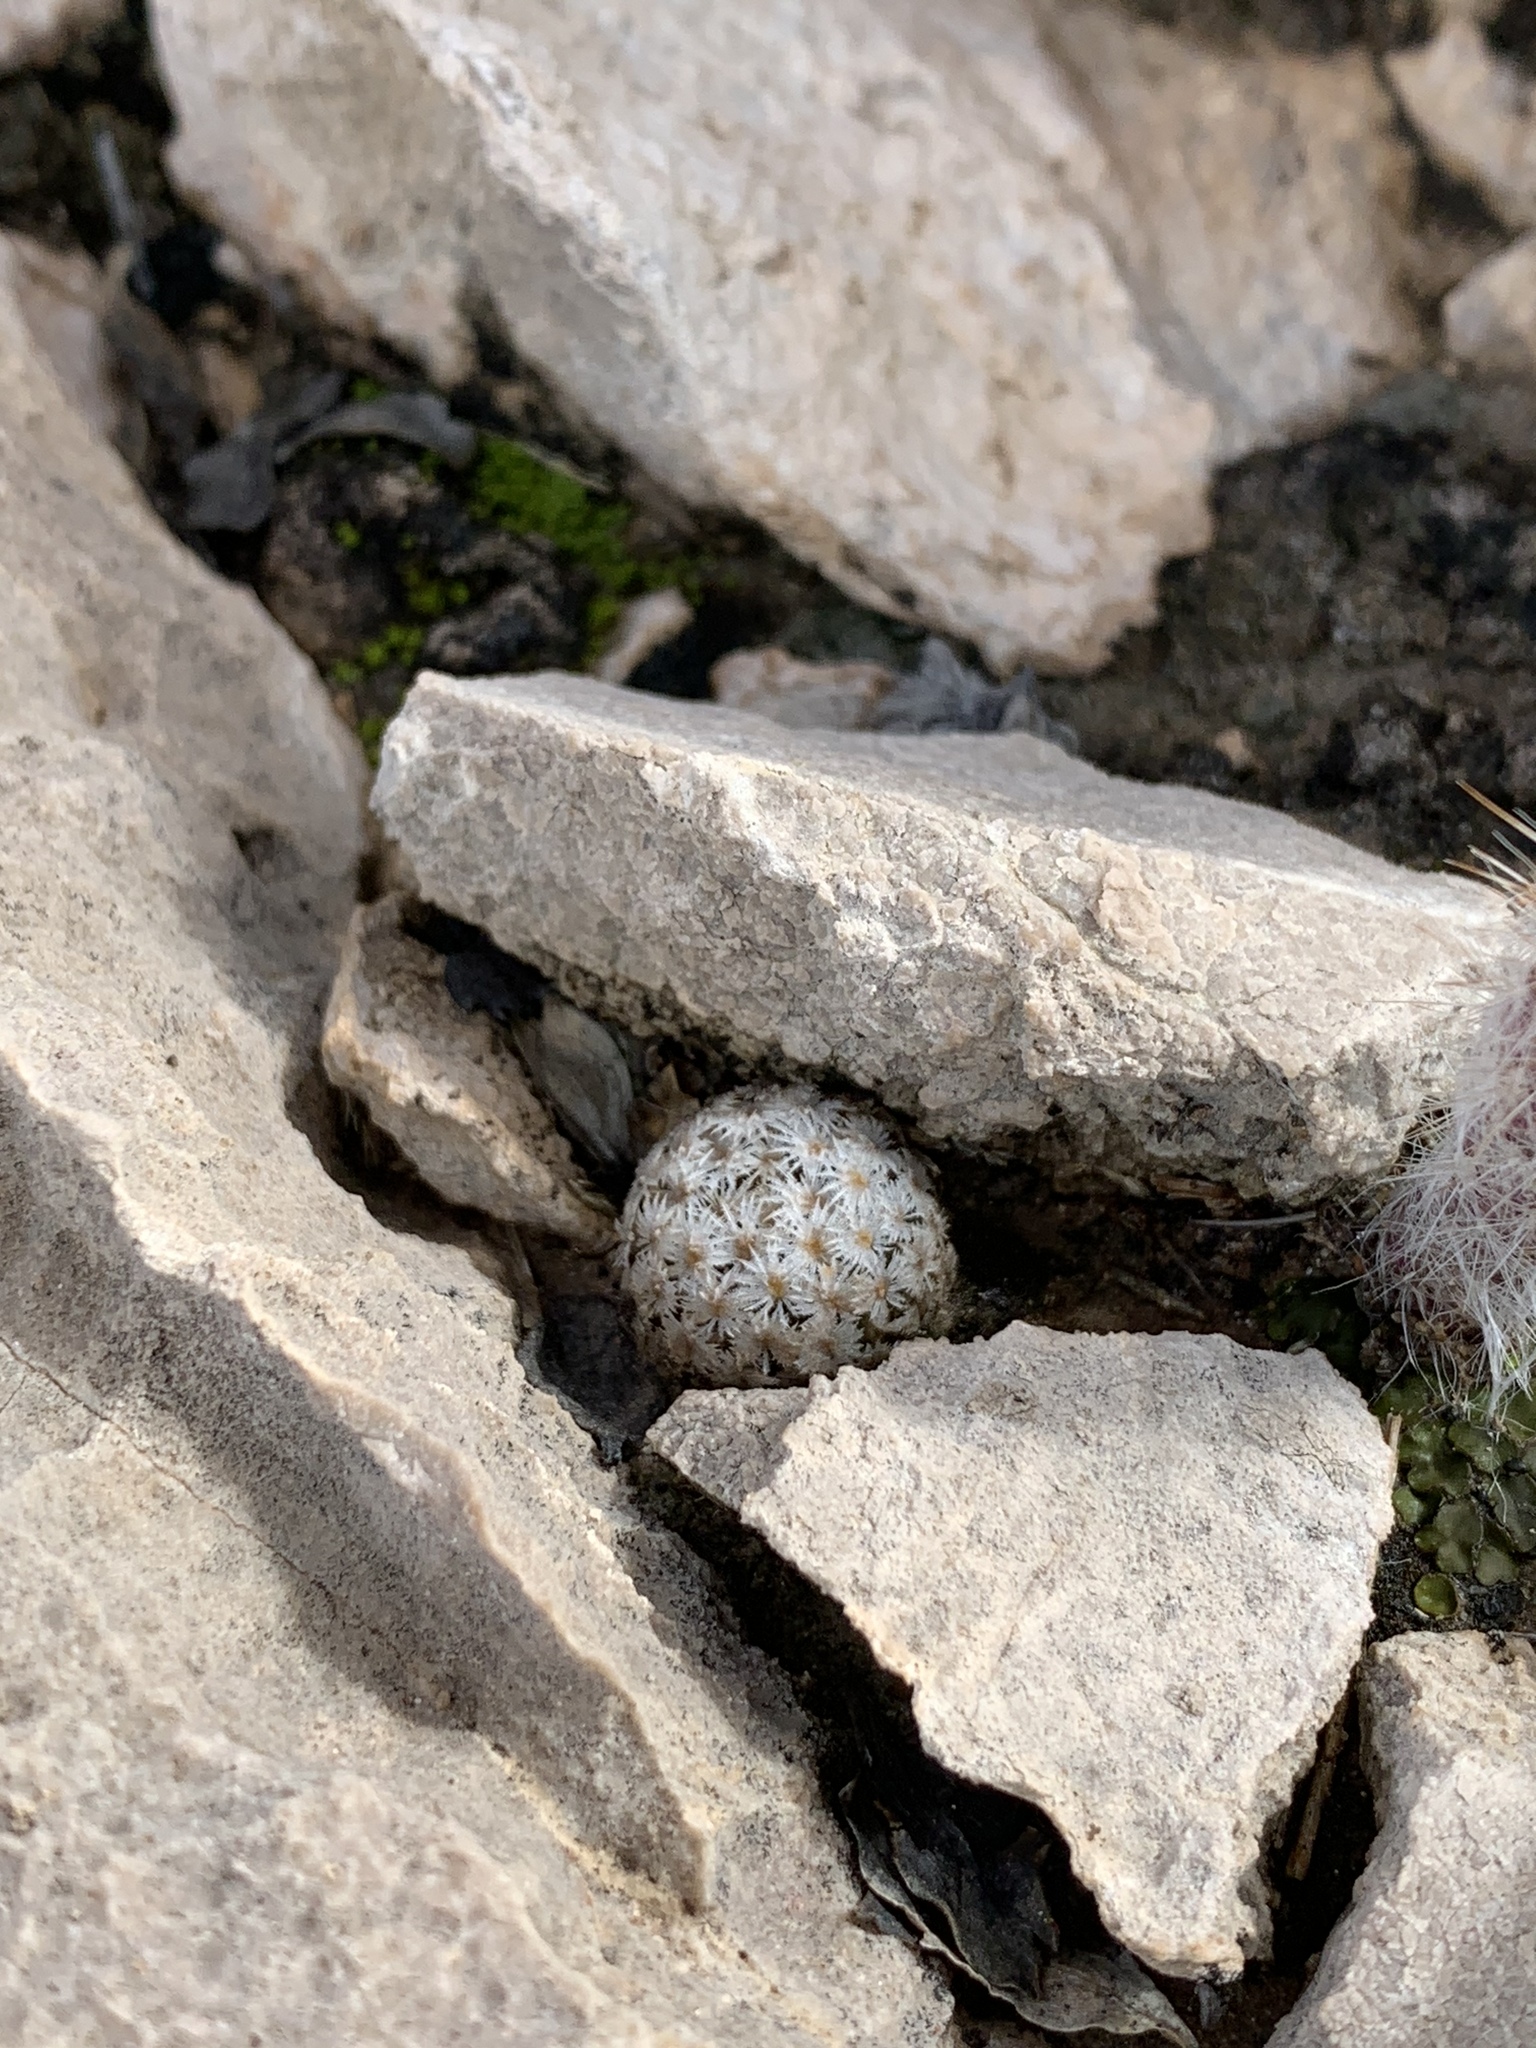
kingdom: Plantae
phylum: Tracheophyta
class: Magnoliopsida
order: Caryophyllales
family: Cactaceae
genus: Mammillaria
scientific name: Mammillaria lasiacantha
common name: Lace-spine nipple cactus
